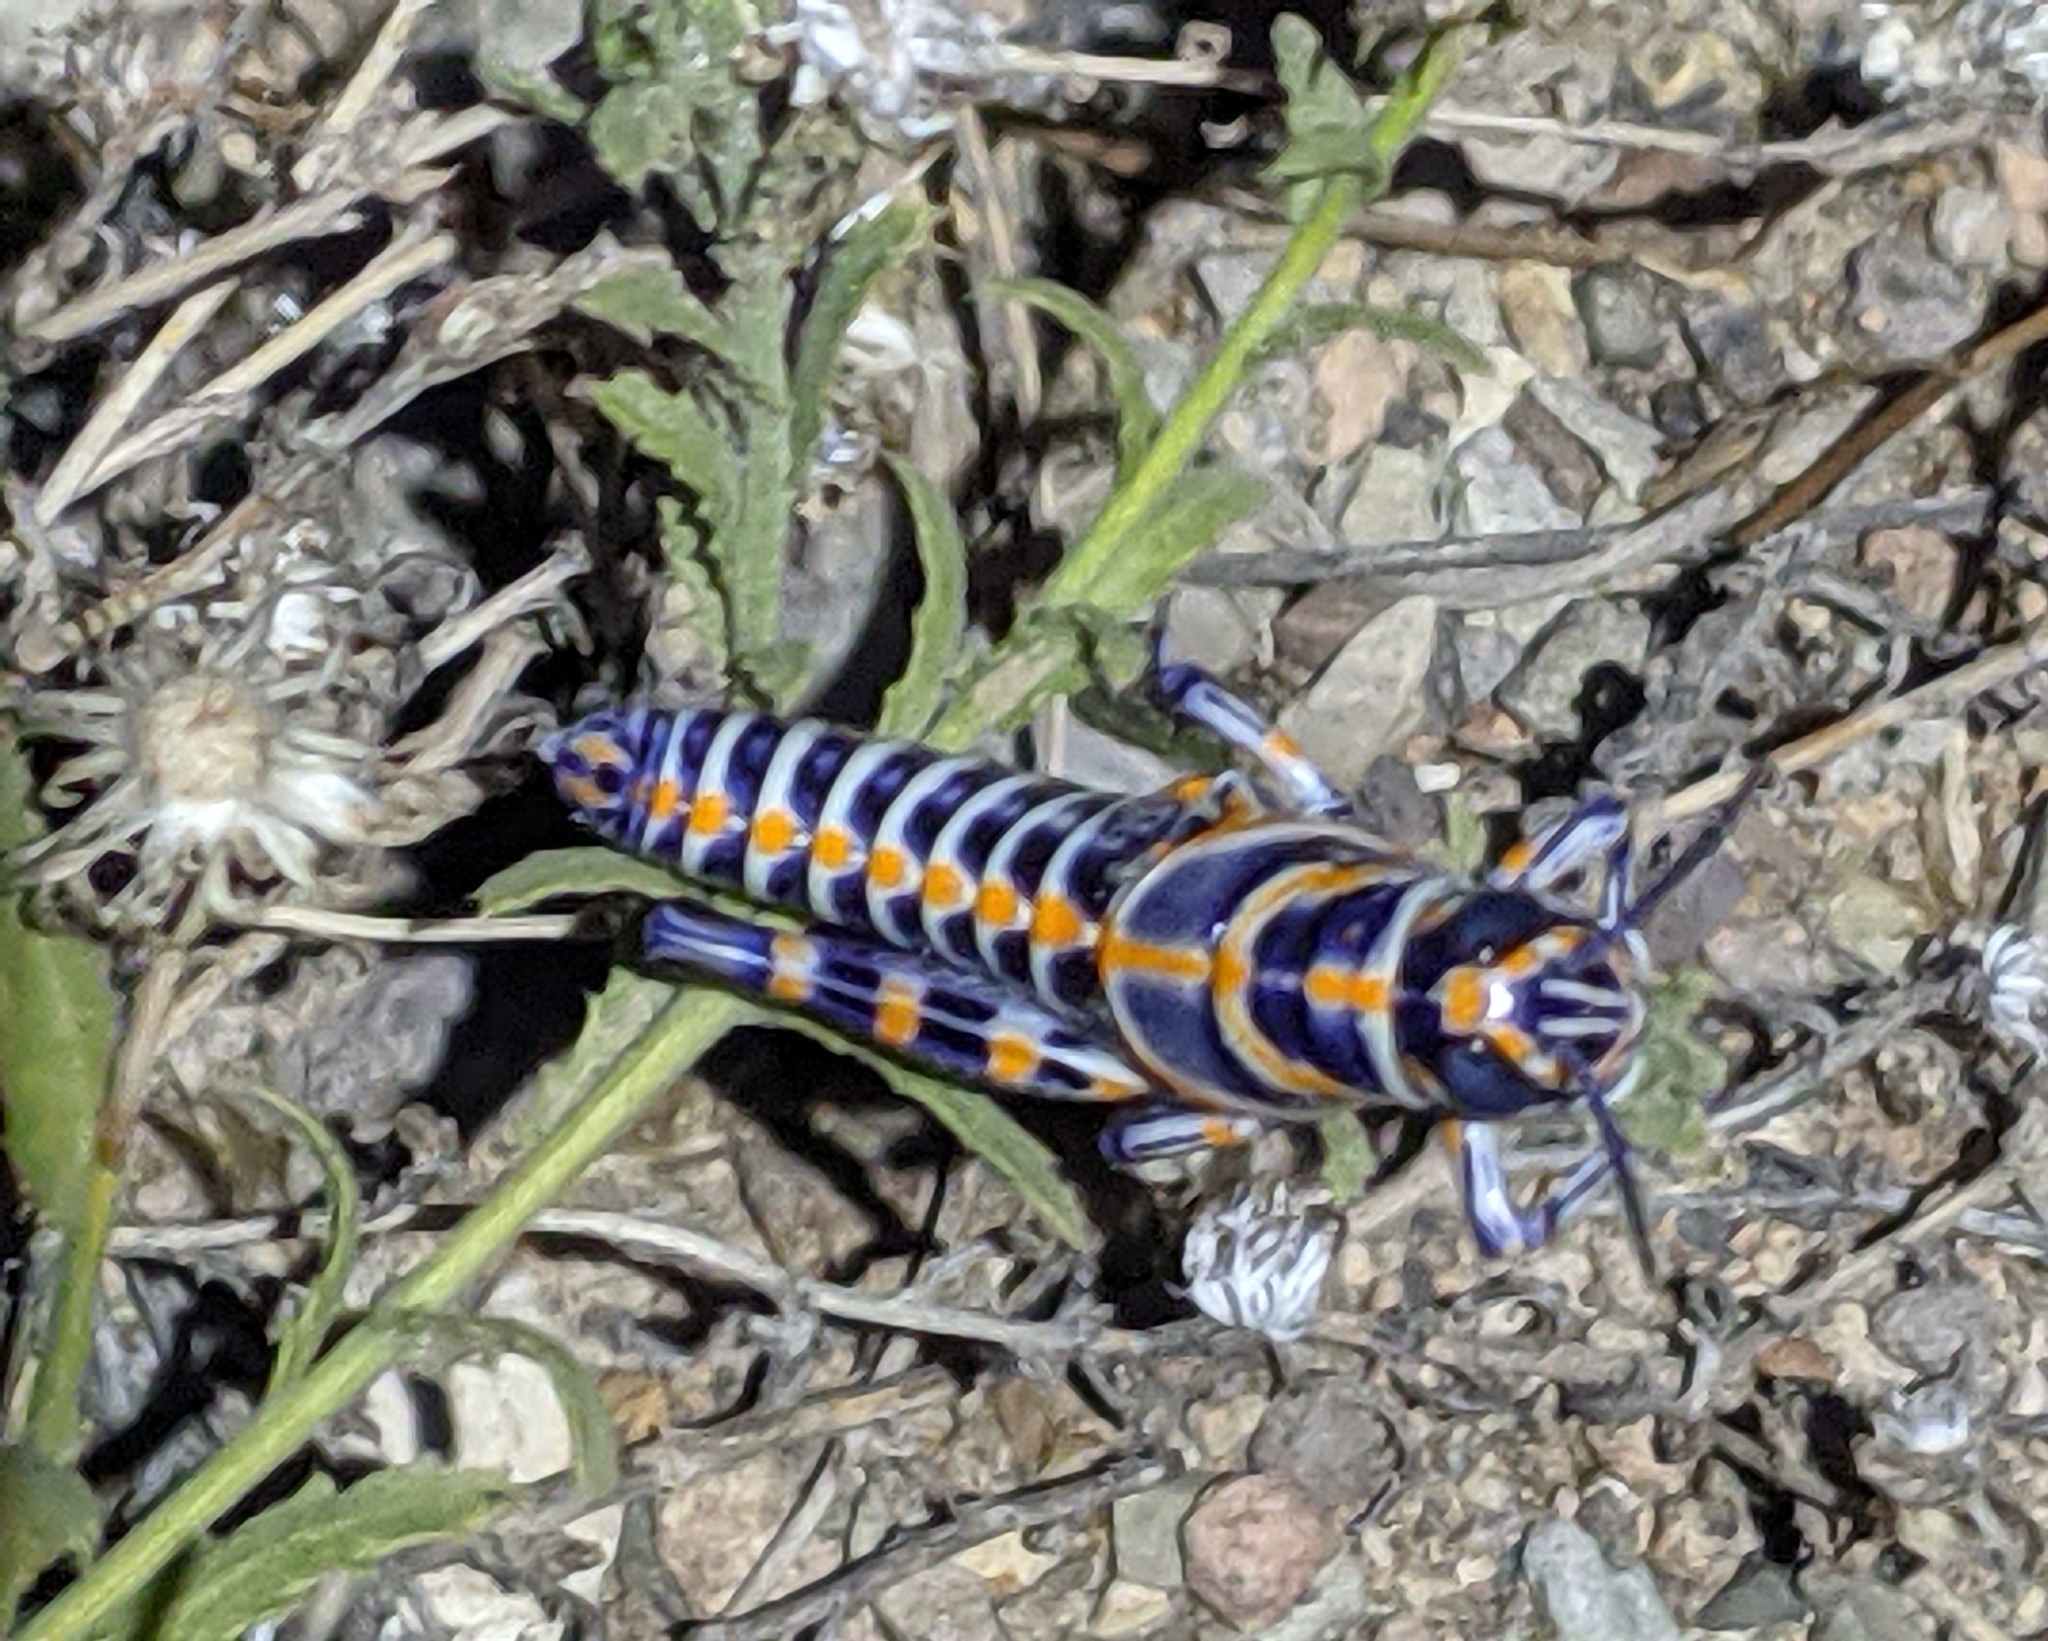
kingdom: Animalia
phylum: Arthropoda
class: Insecta
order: Orthoptera
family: Acrididae
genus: Dactylotum
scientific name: Dactylotum bicolor
